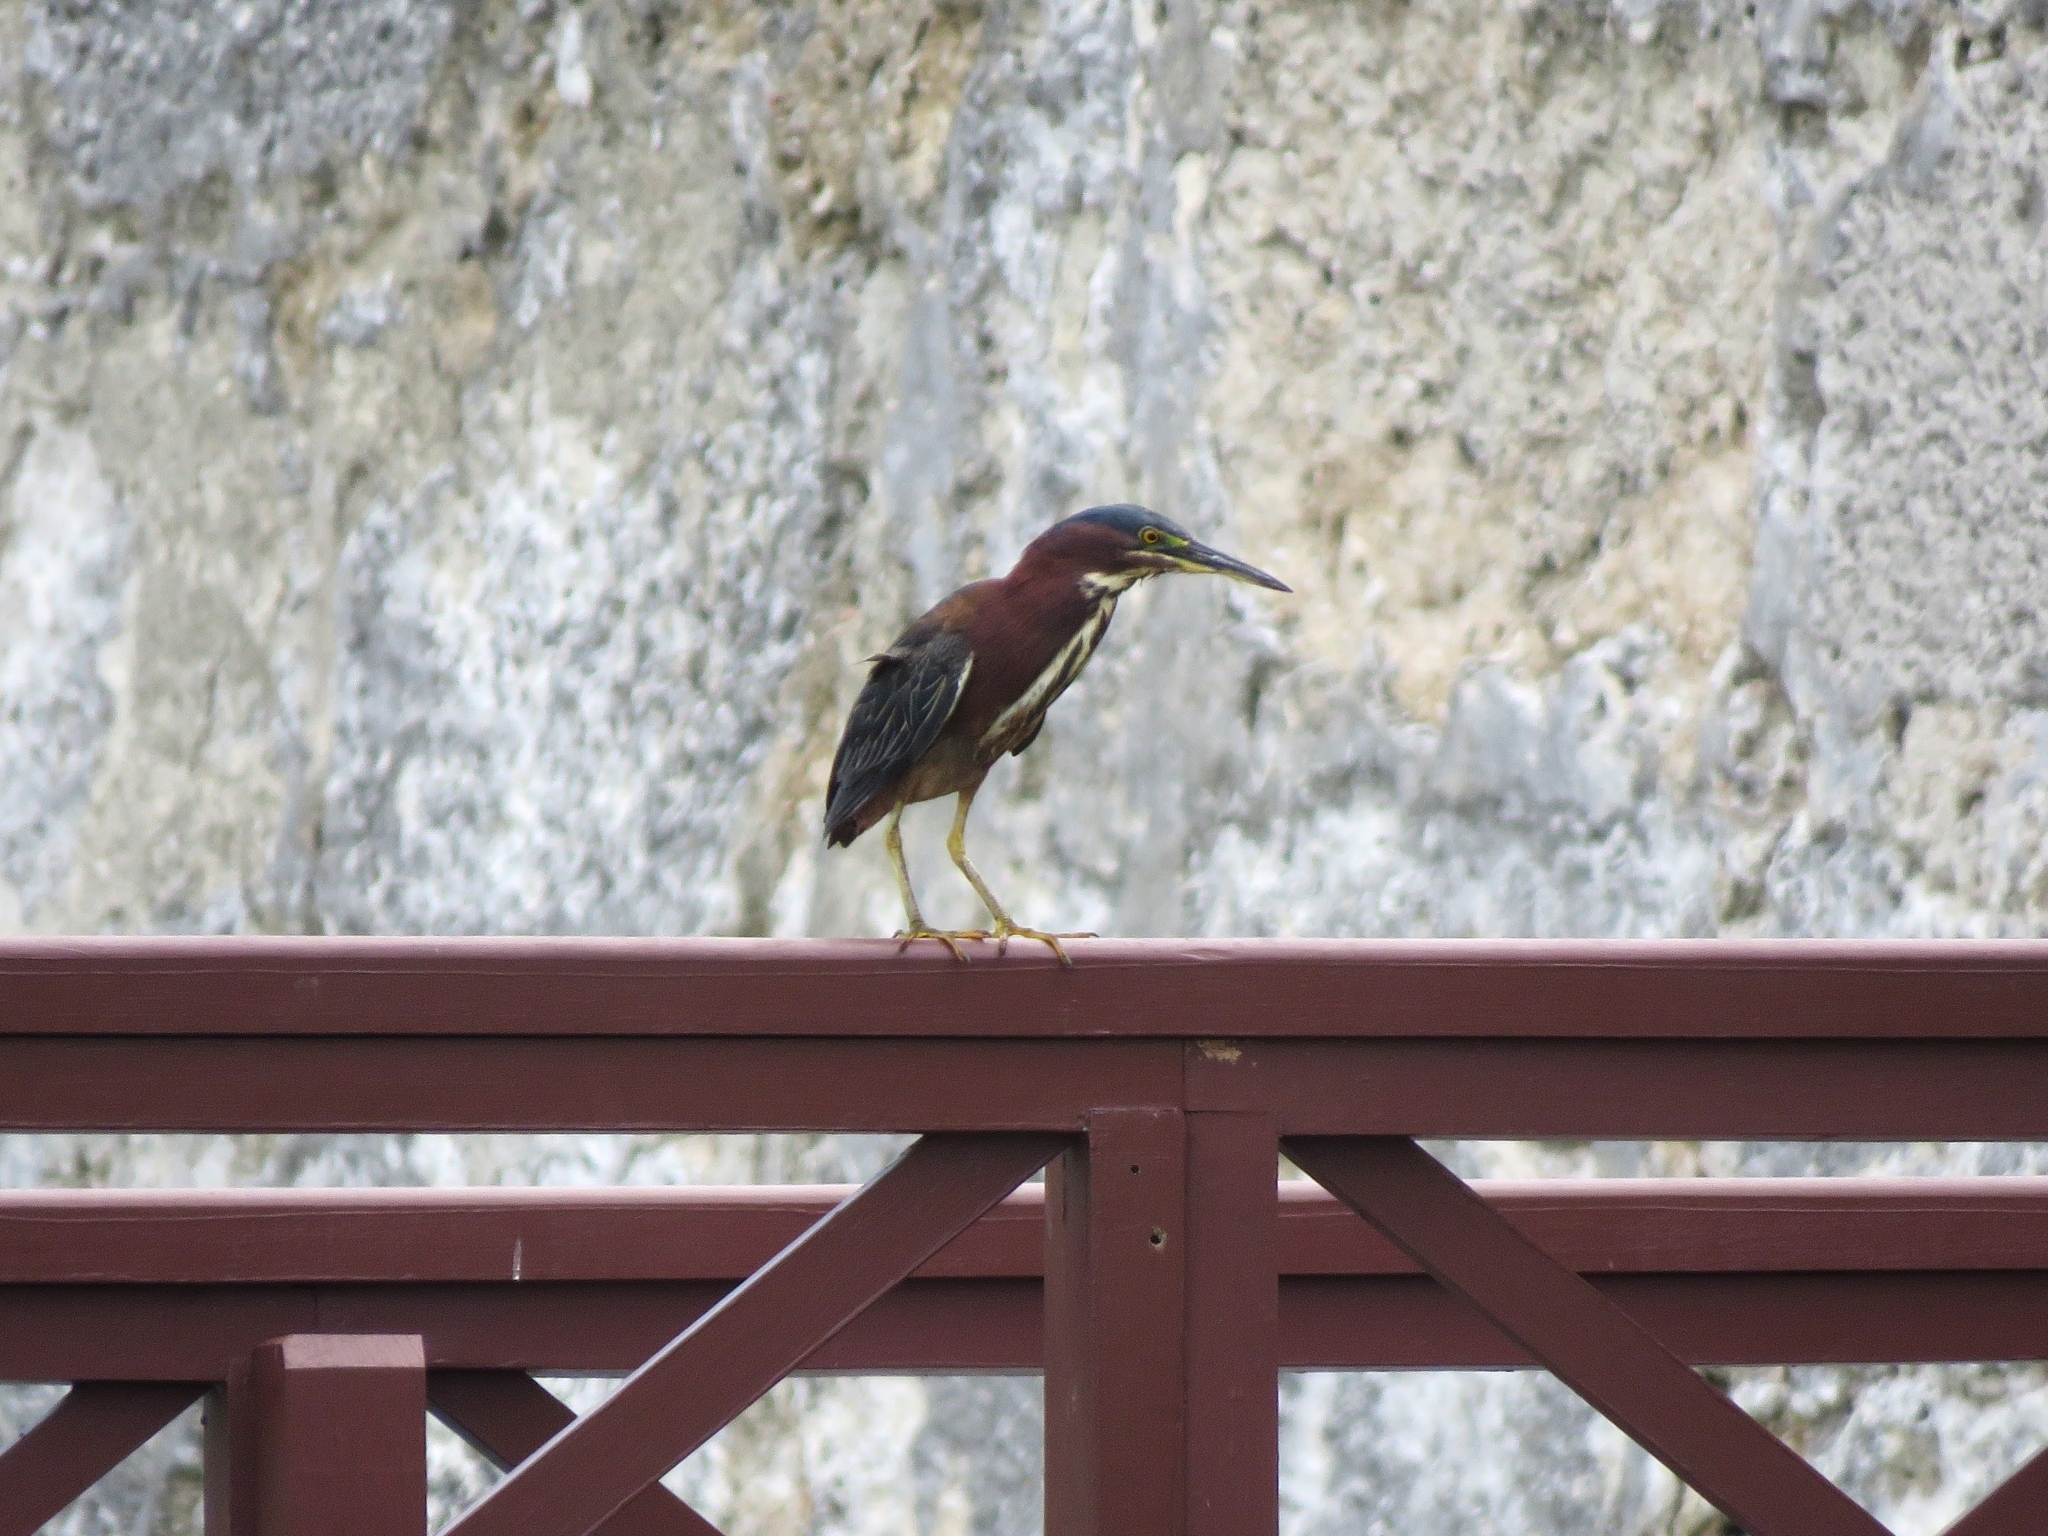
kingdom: Animalia
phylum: Chordata
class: Aves
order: Pelecaniformes
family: Ardeidae
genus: Butorides
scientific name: Butorides virescens
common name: Green heron
